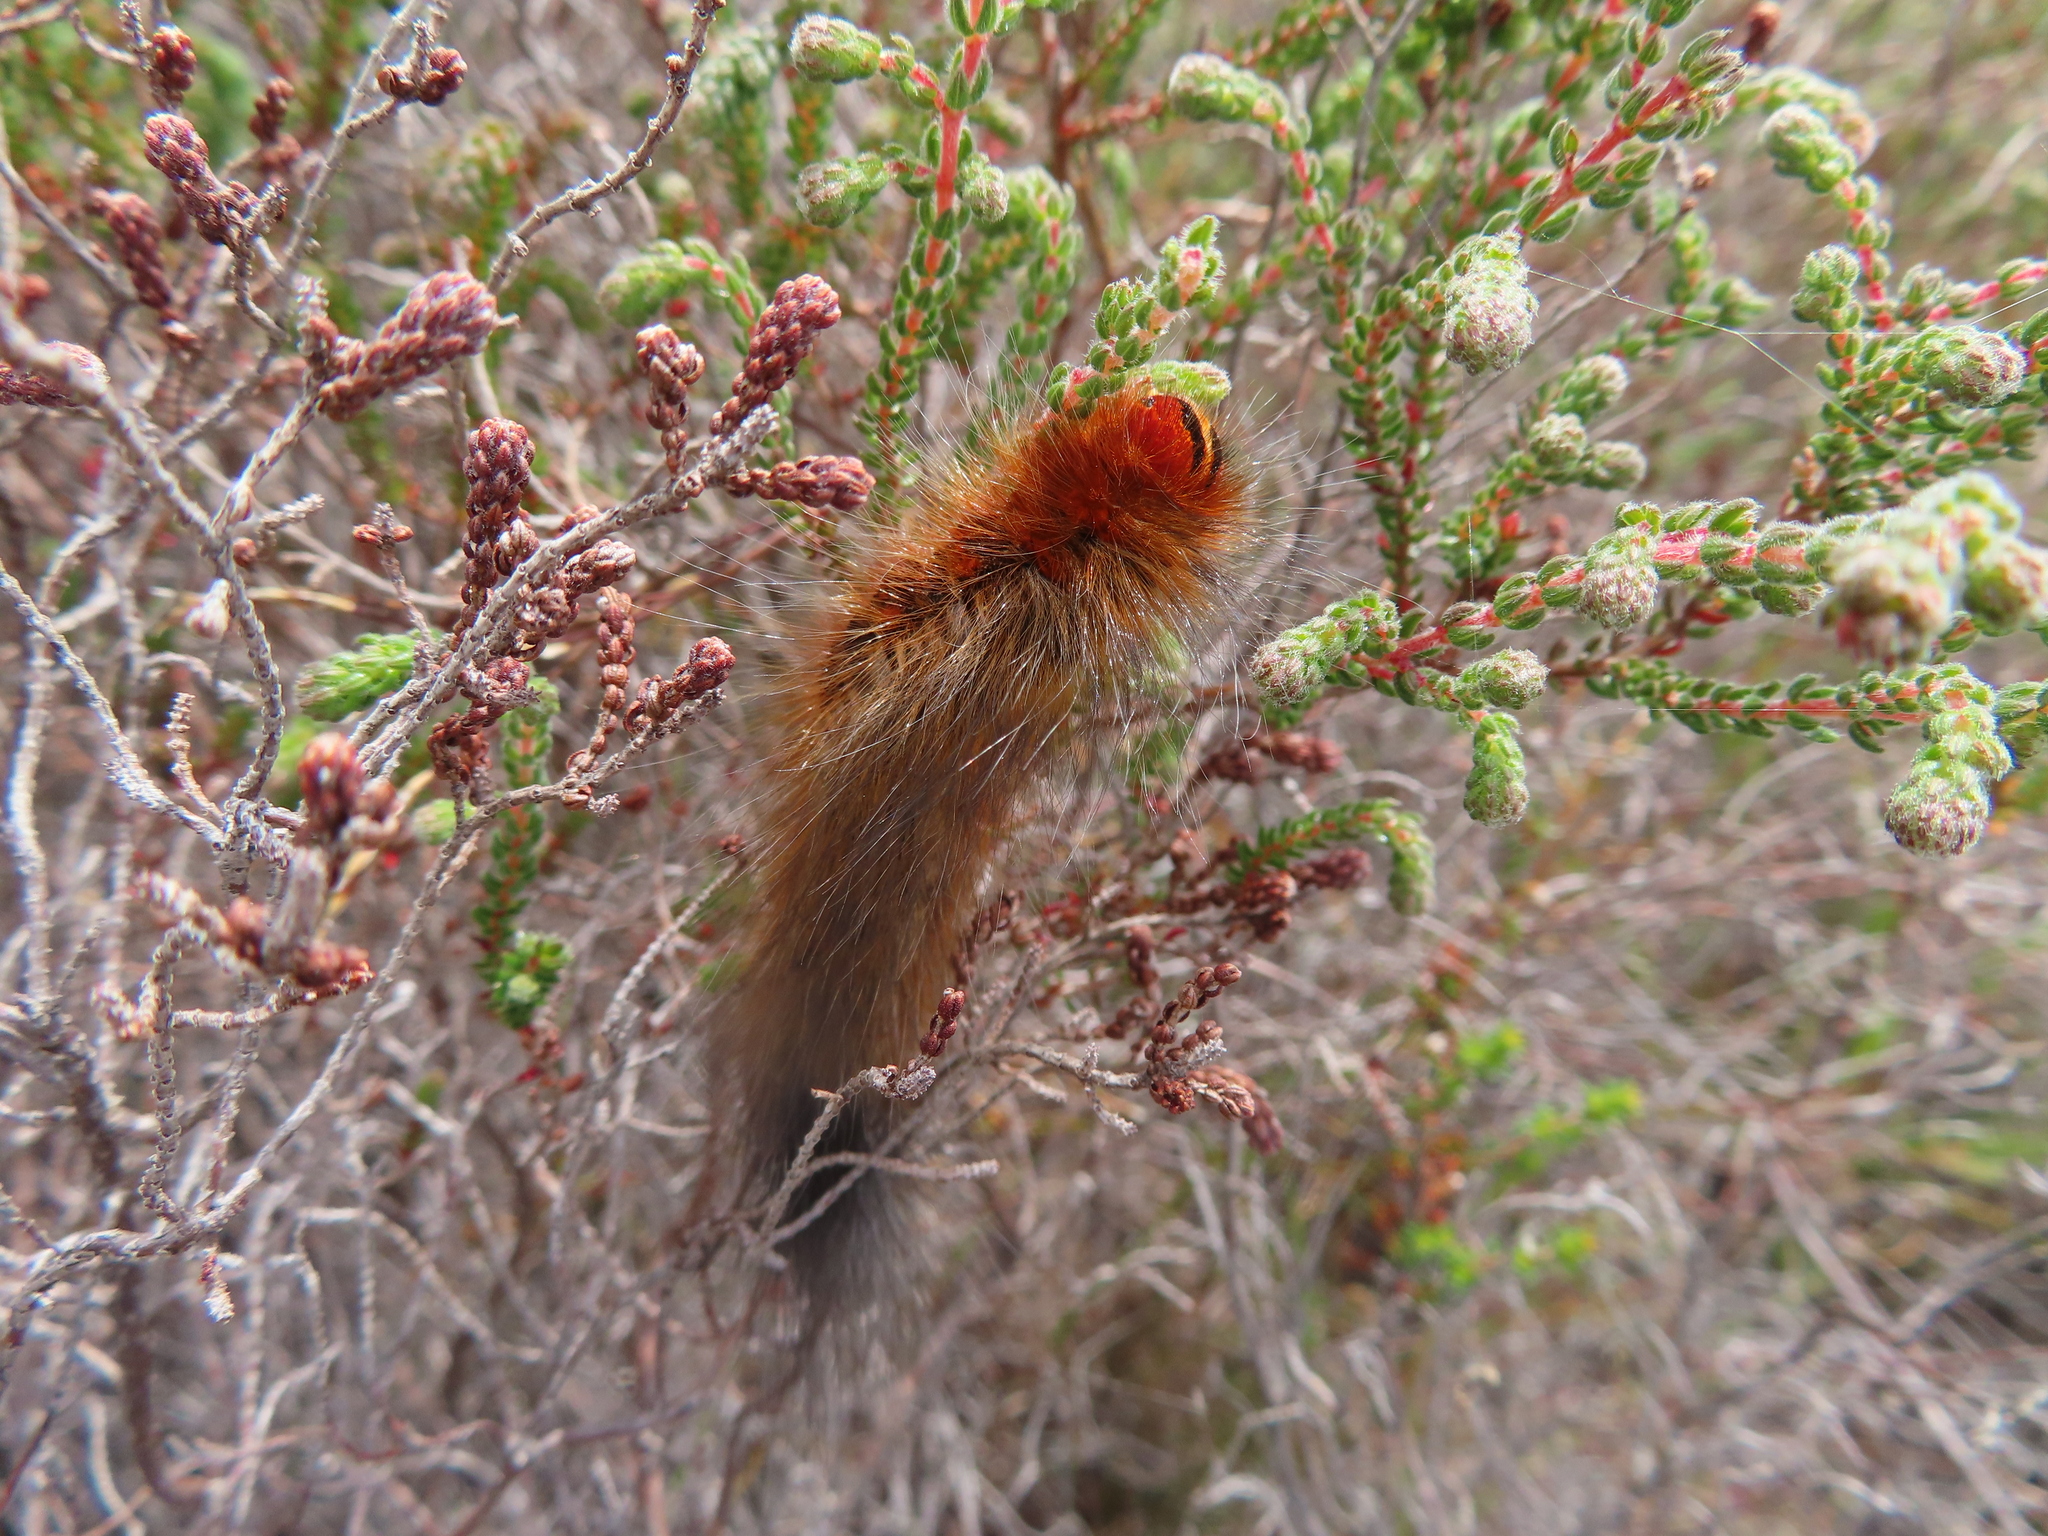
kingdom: Animalia
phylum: Arthropoda
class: Insecta
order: Lepidoptera
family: Lasiocampidae
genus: Mesocelis
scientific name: Mesocelis monticola
